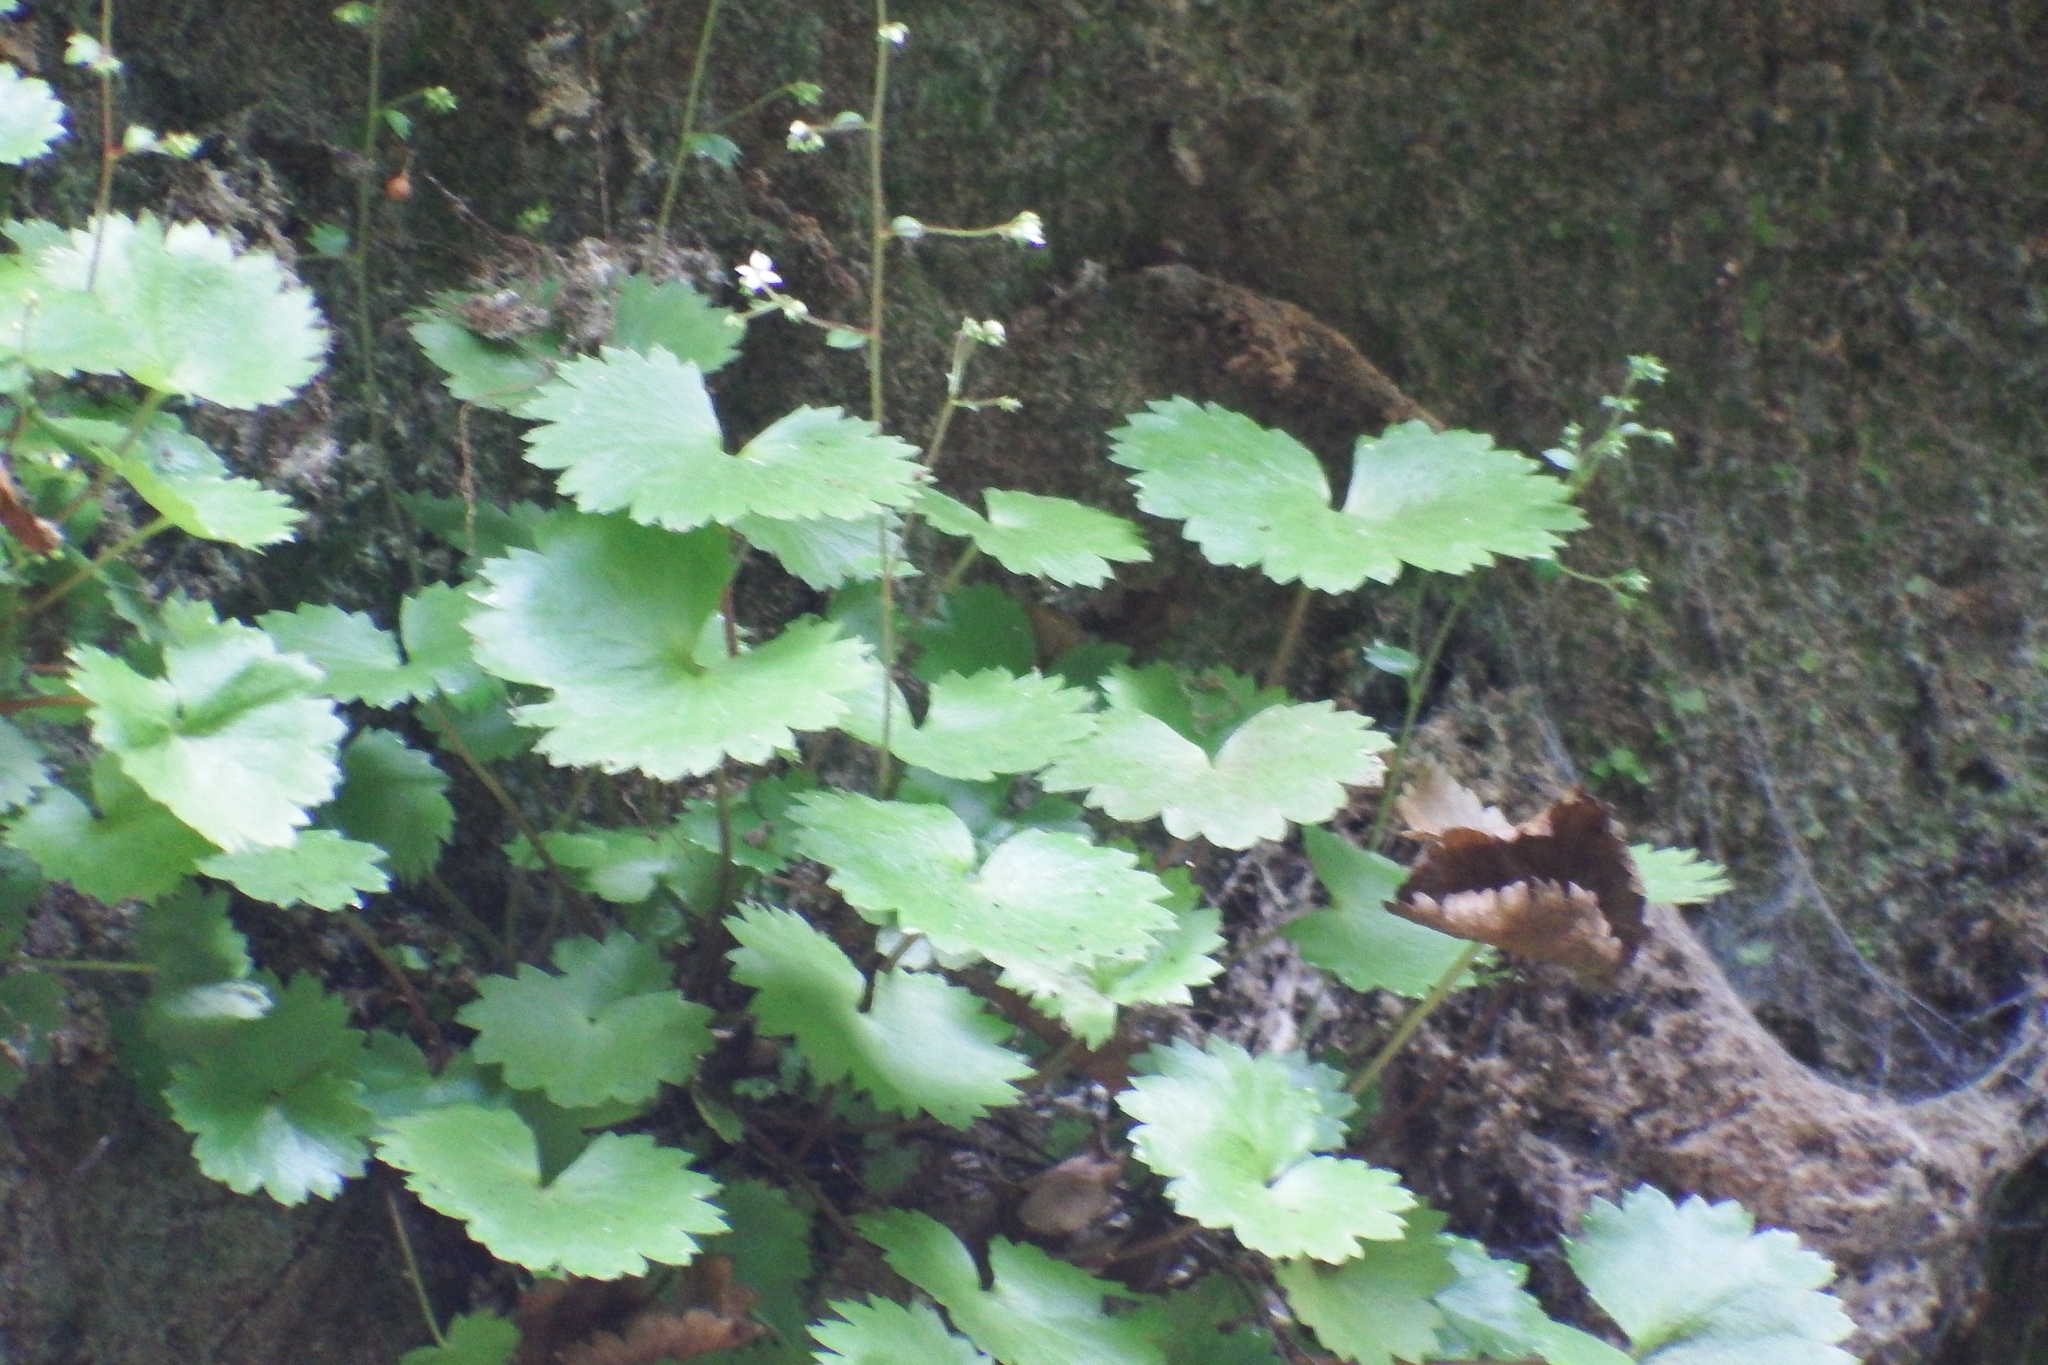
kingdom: Plantae
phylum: Tracheophyta
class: Magnoliopsida
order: Saxifragales
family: Saxifragaceae
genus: Sullivantia
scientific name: Sullivantia sullivantii
